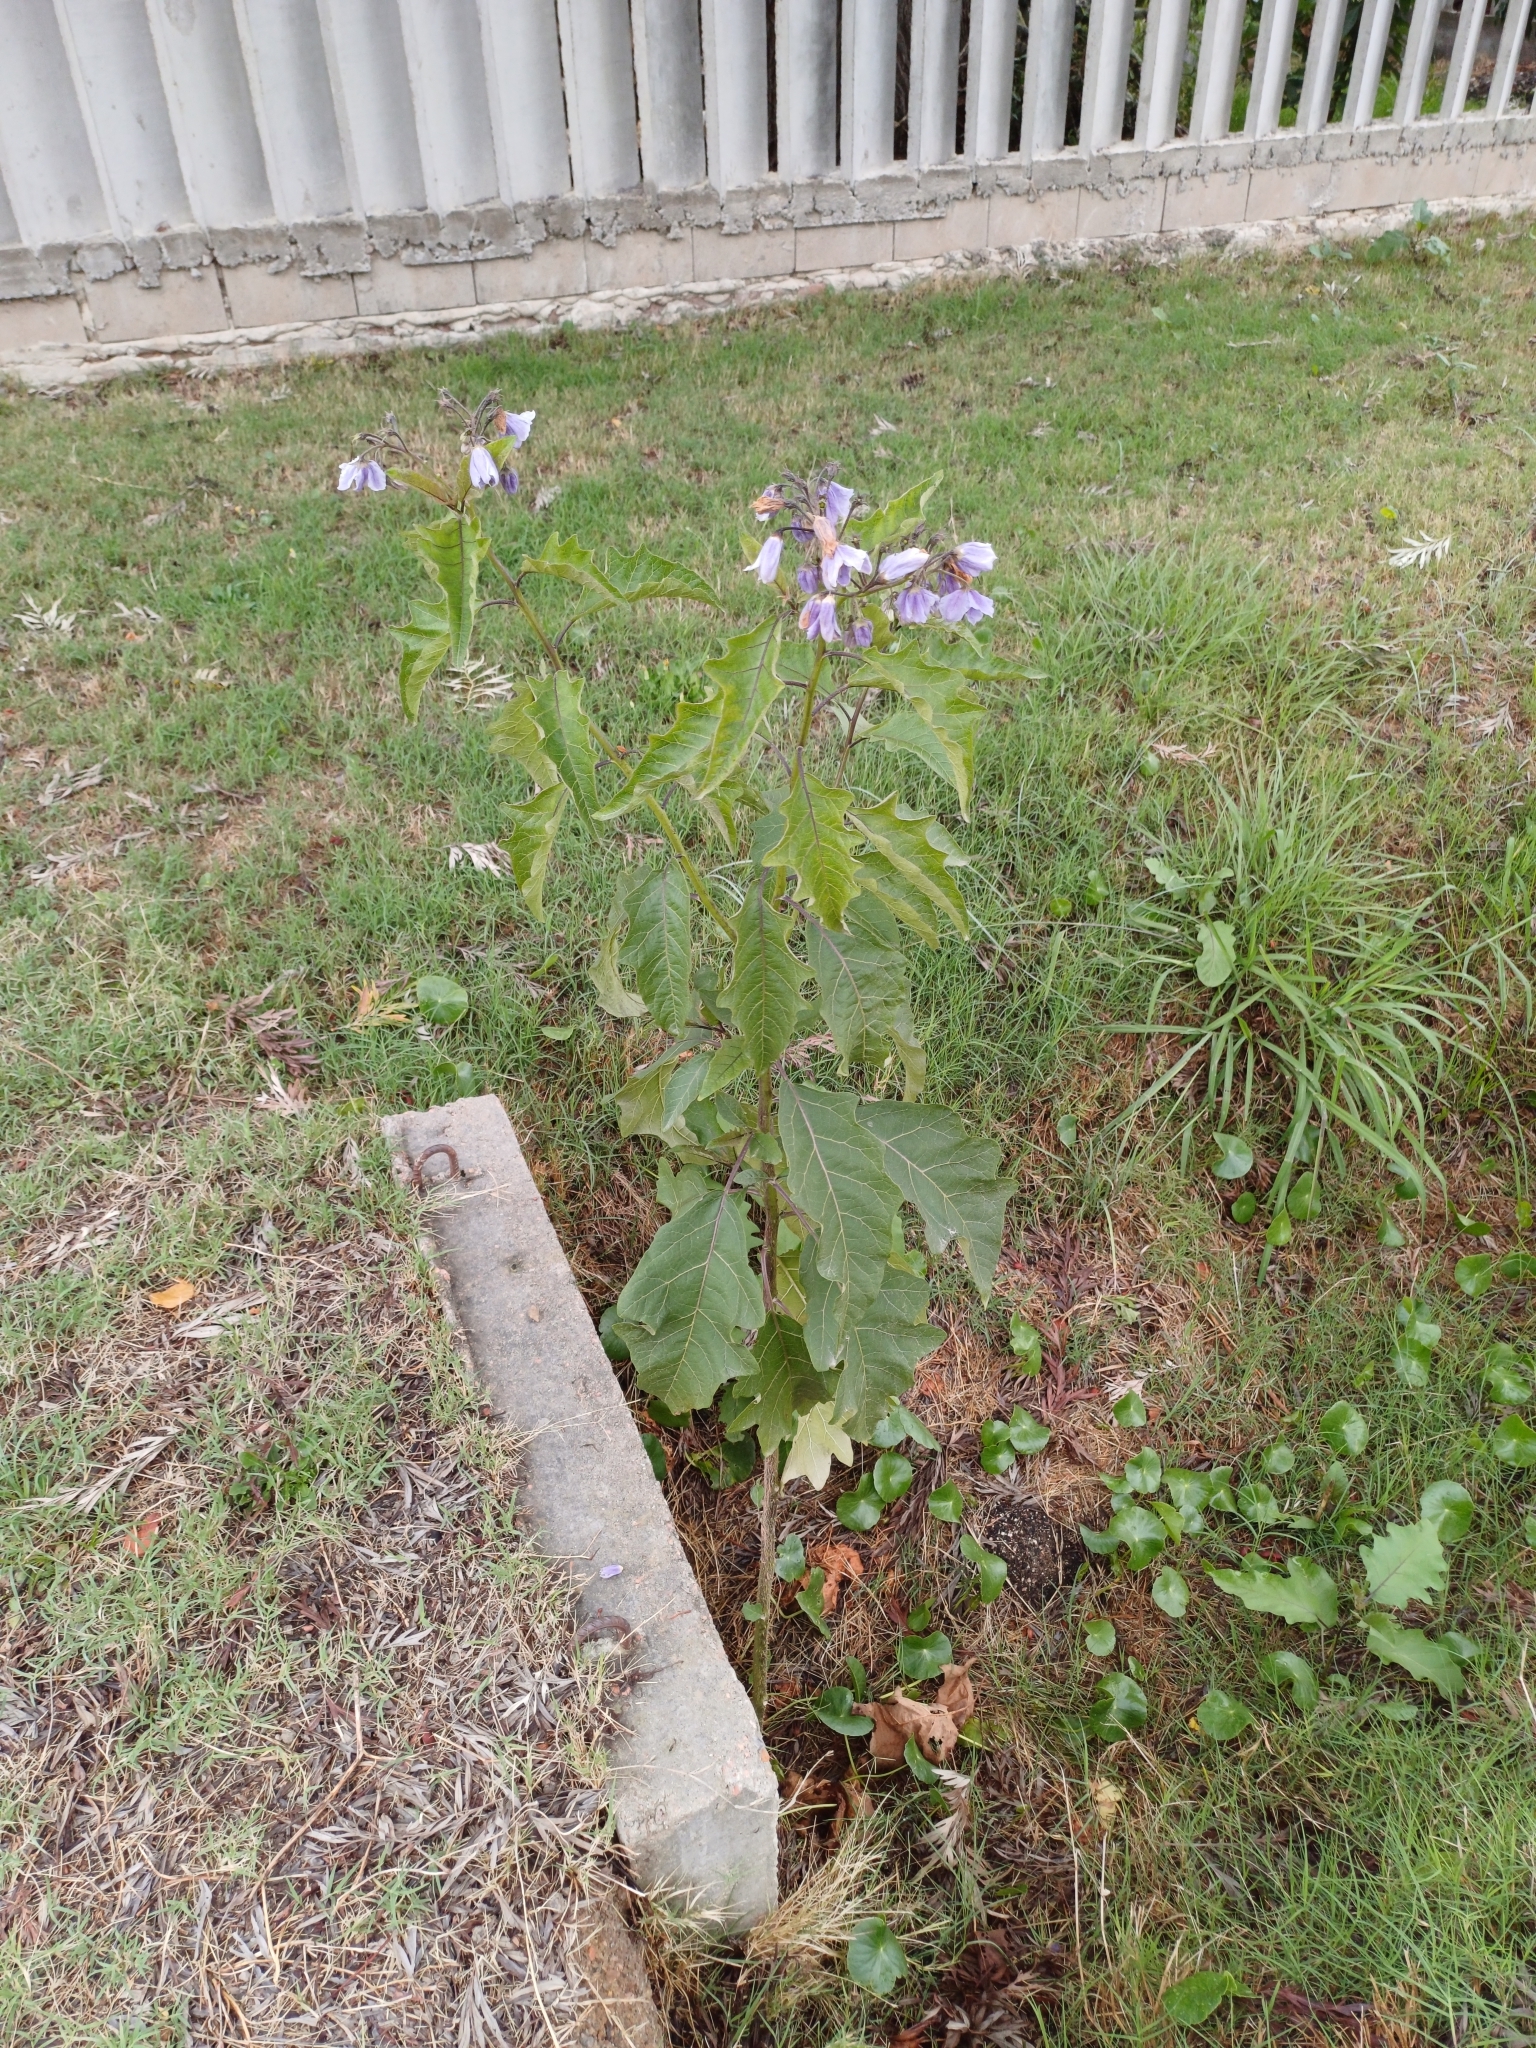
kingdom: Plantae
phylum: Tracheophyta
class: Magnoliopsida
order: Solanales
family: Solanaceae
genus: Solanum
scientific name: Solanum bonariense
